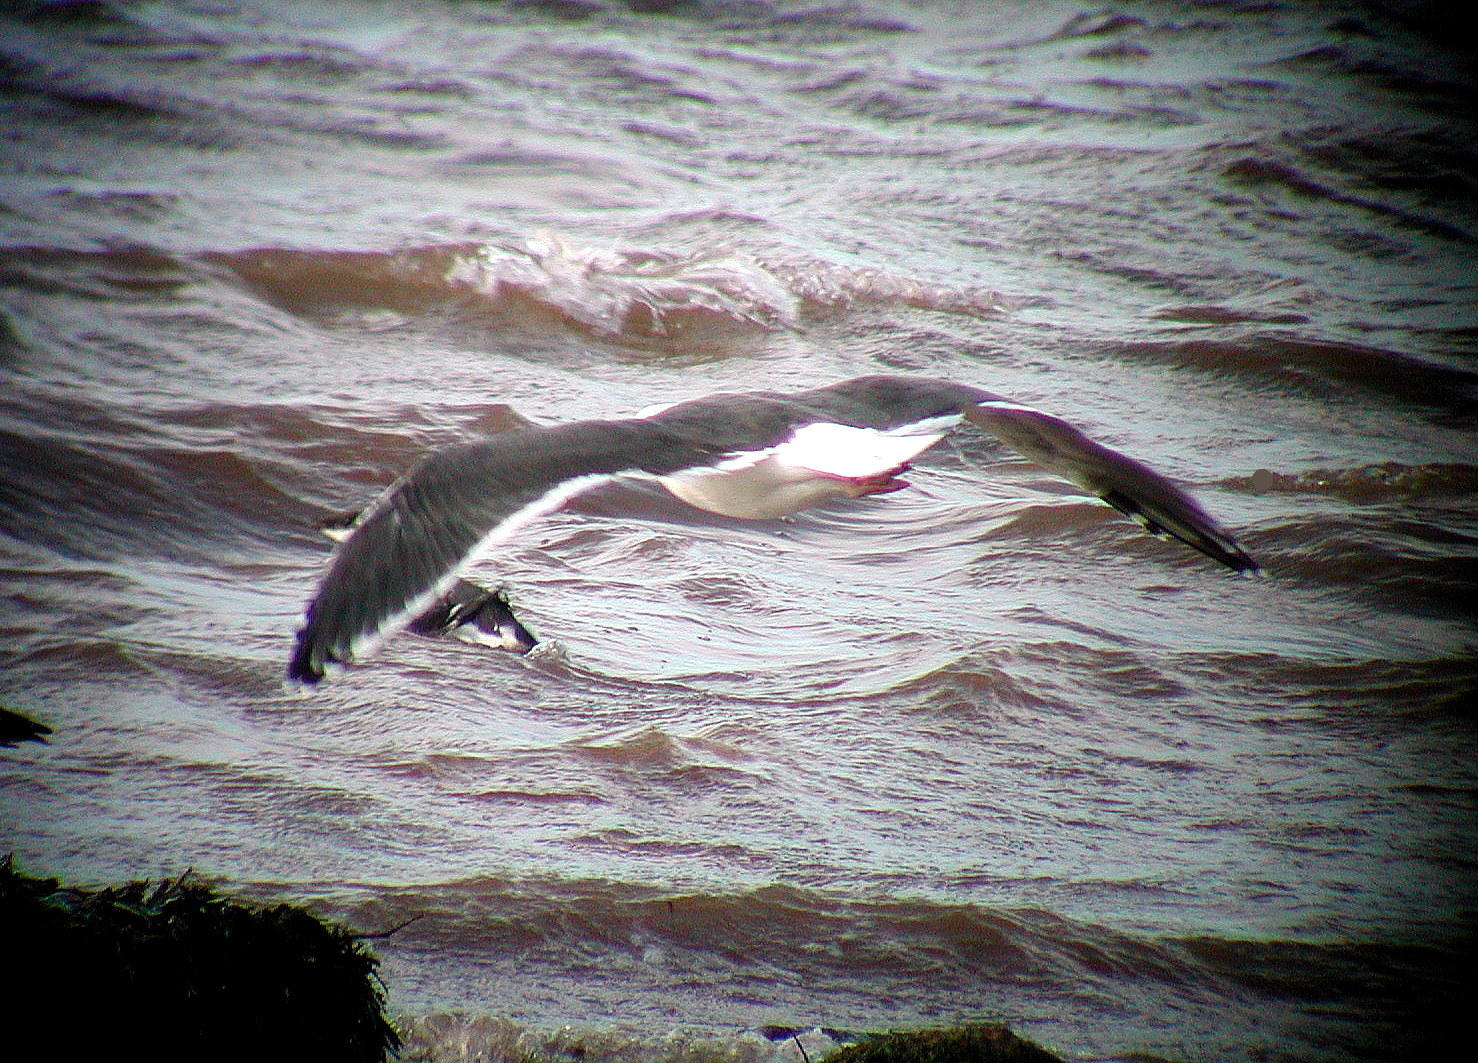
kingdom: Animalia
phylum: Chordata
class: Aves
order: Charadriiformes
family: Laridae
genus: Larus
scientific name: Larus marinus
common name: Great black-backed gull
